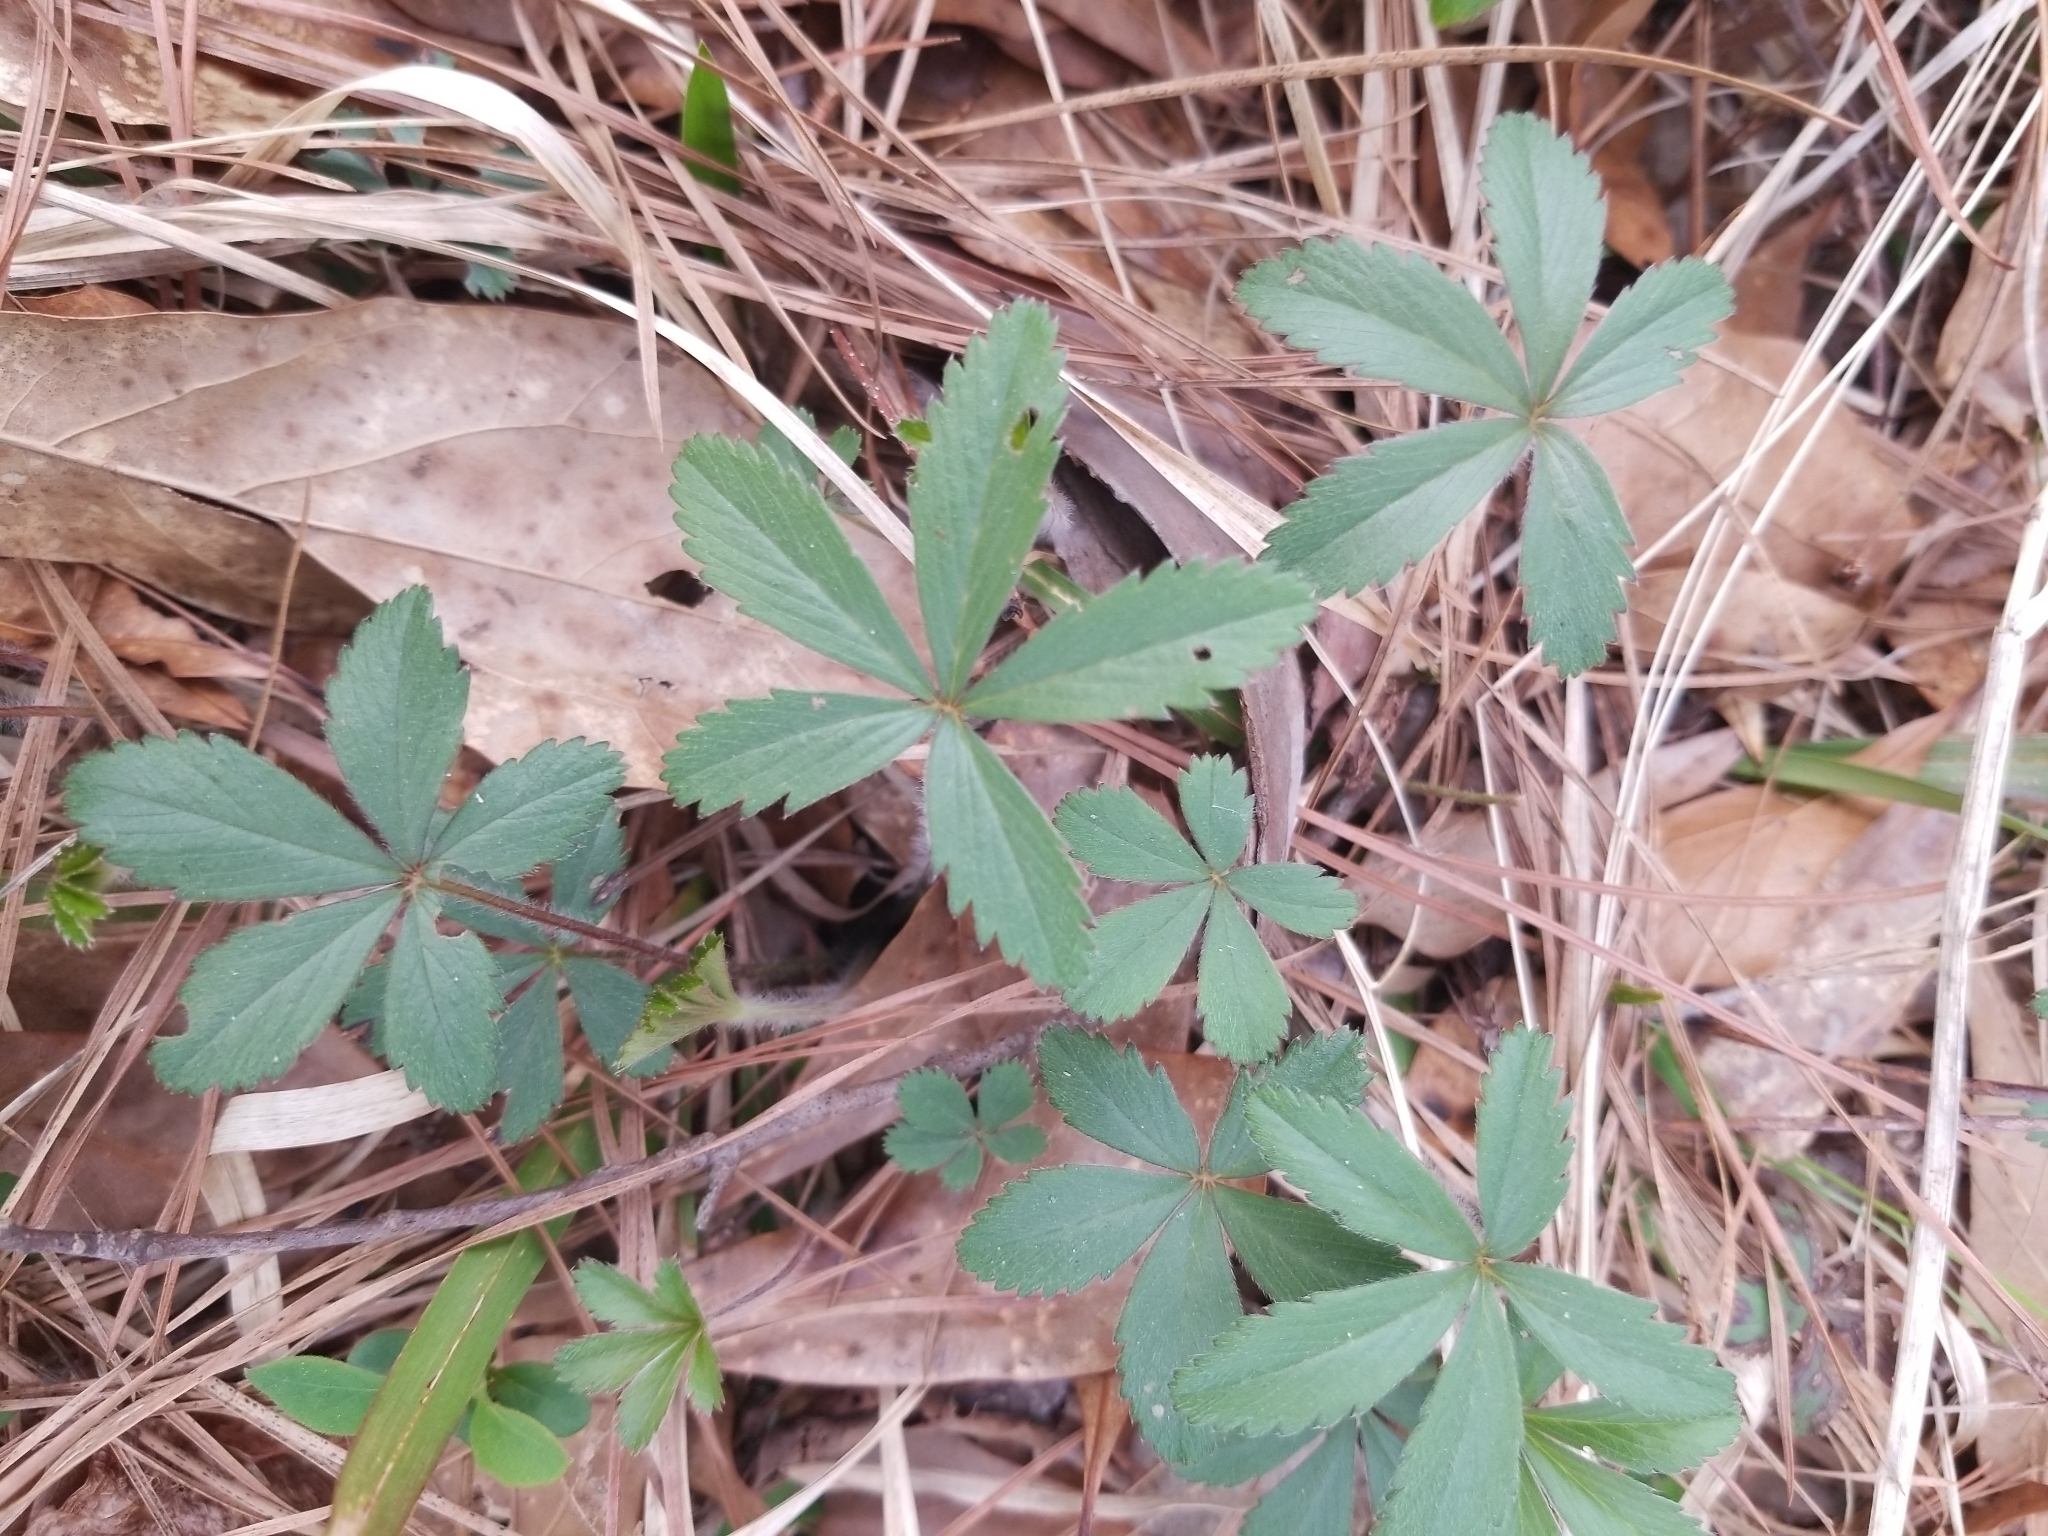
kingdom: Plantae
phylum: Tracheophyta
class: Magnoliopsida
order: Rosales
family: Rosaceae
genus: Potentilla
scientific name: Potentilla simplex
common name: Old field cinquefoil
